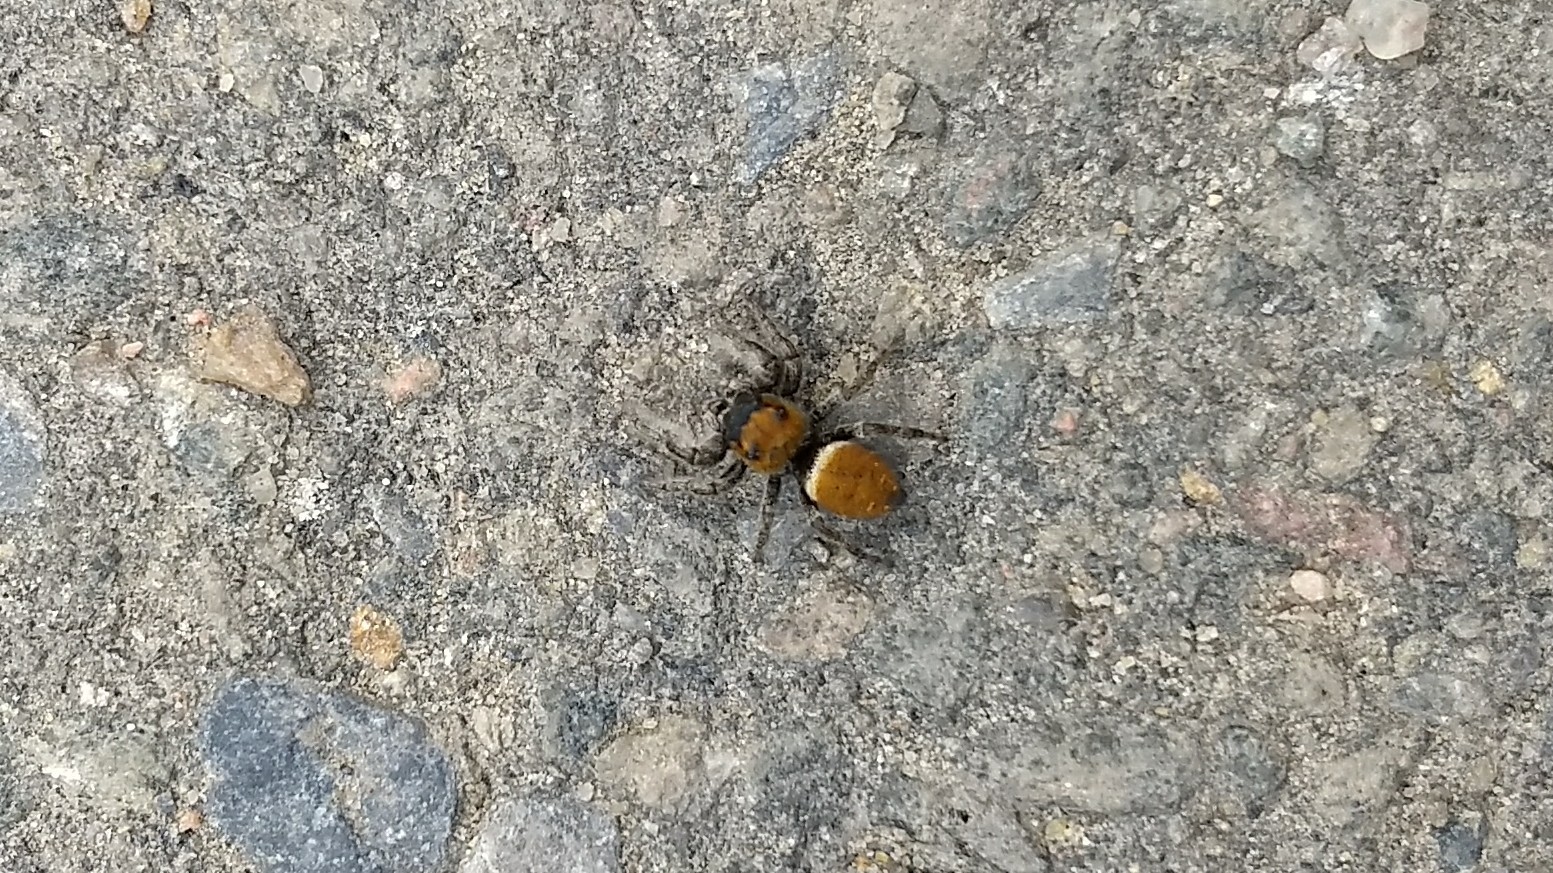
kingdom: Animalia
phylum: Arthropoda
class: Arachnida
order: Araneae
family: Salticidae
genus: Phidippus
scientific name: Phidippus whitmani
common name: Whitman's jumping spider
